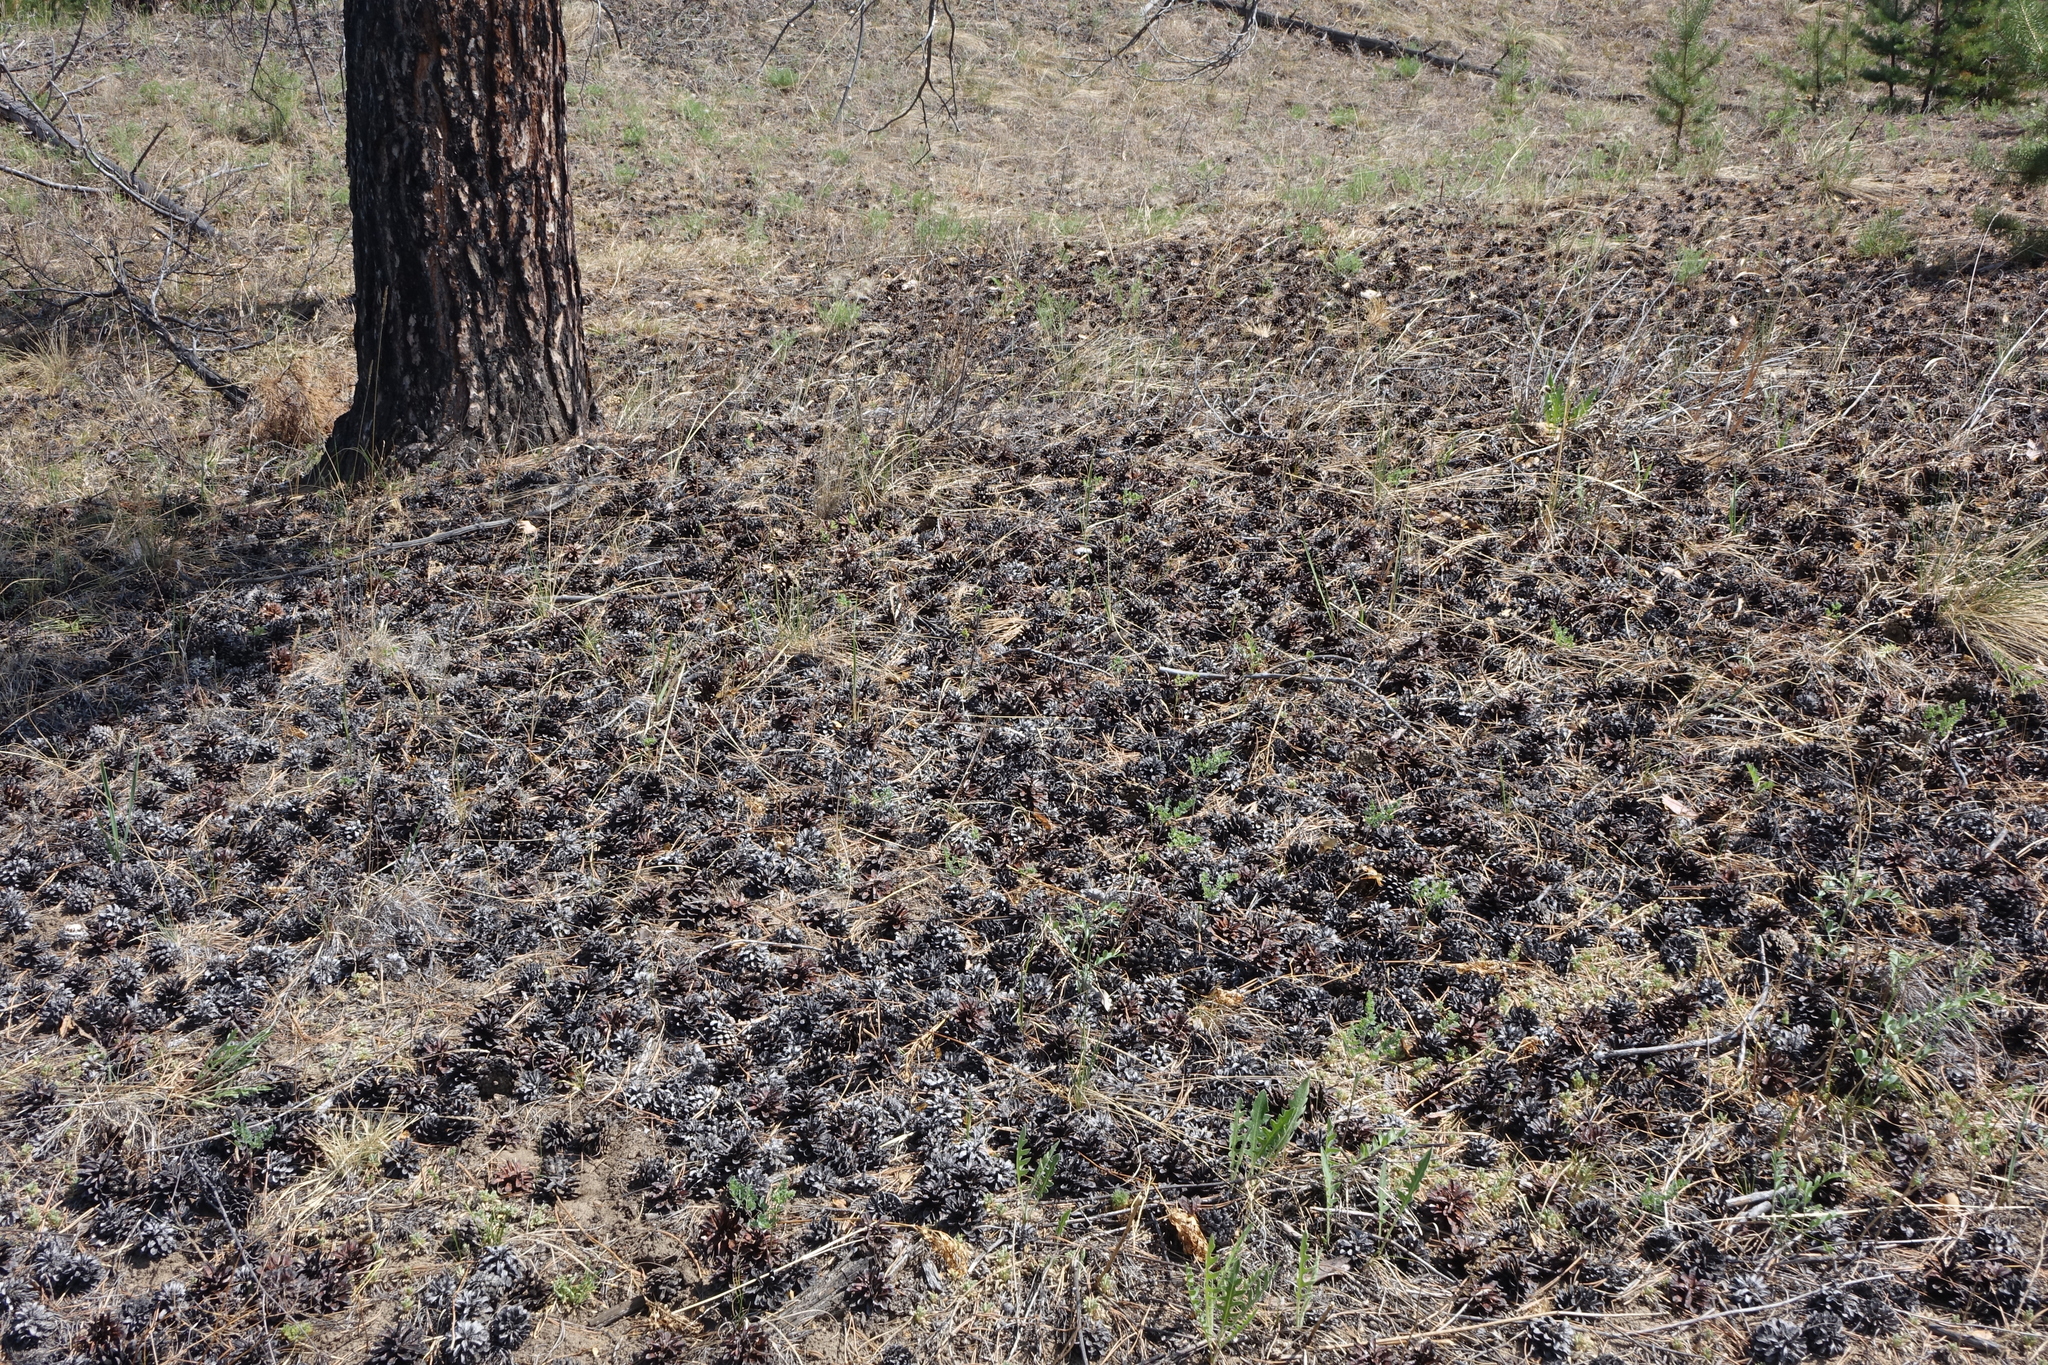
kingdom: Plantae
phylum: Tracheophyta
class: Pinopsida
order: Pinales
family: Pinaceae
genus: Pinus
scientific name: Pinus sylvestris
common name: Scots pine
